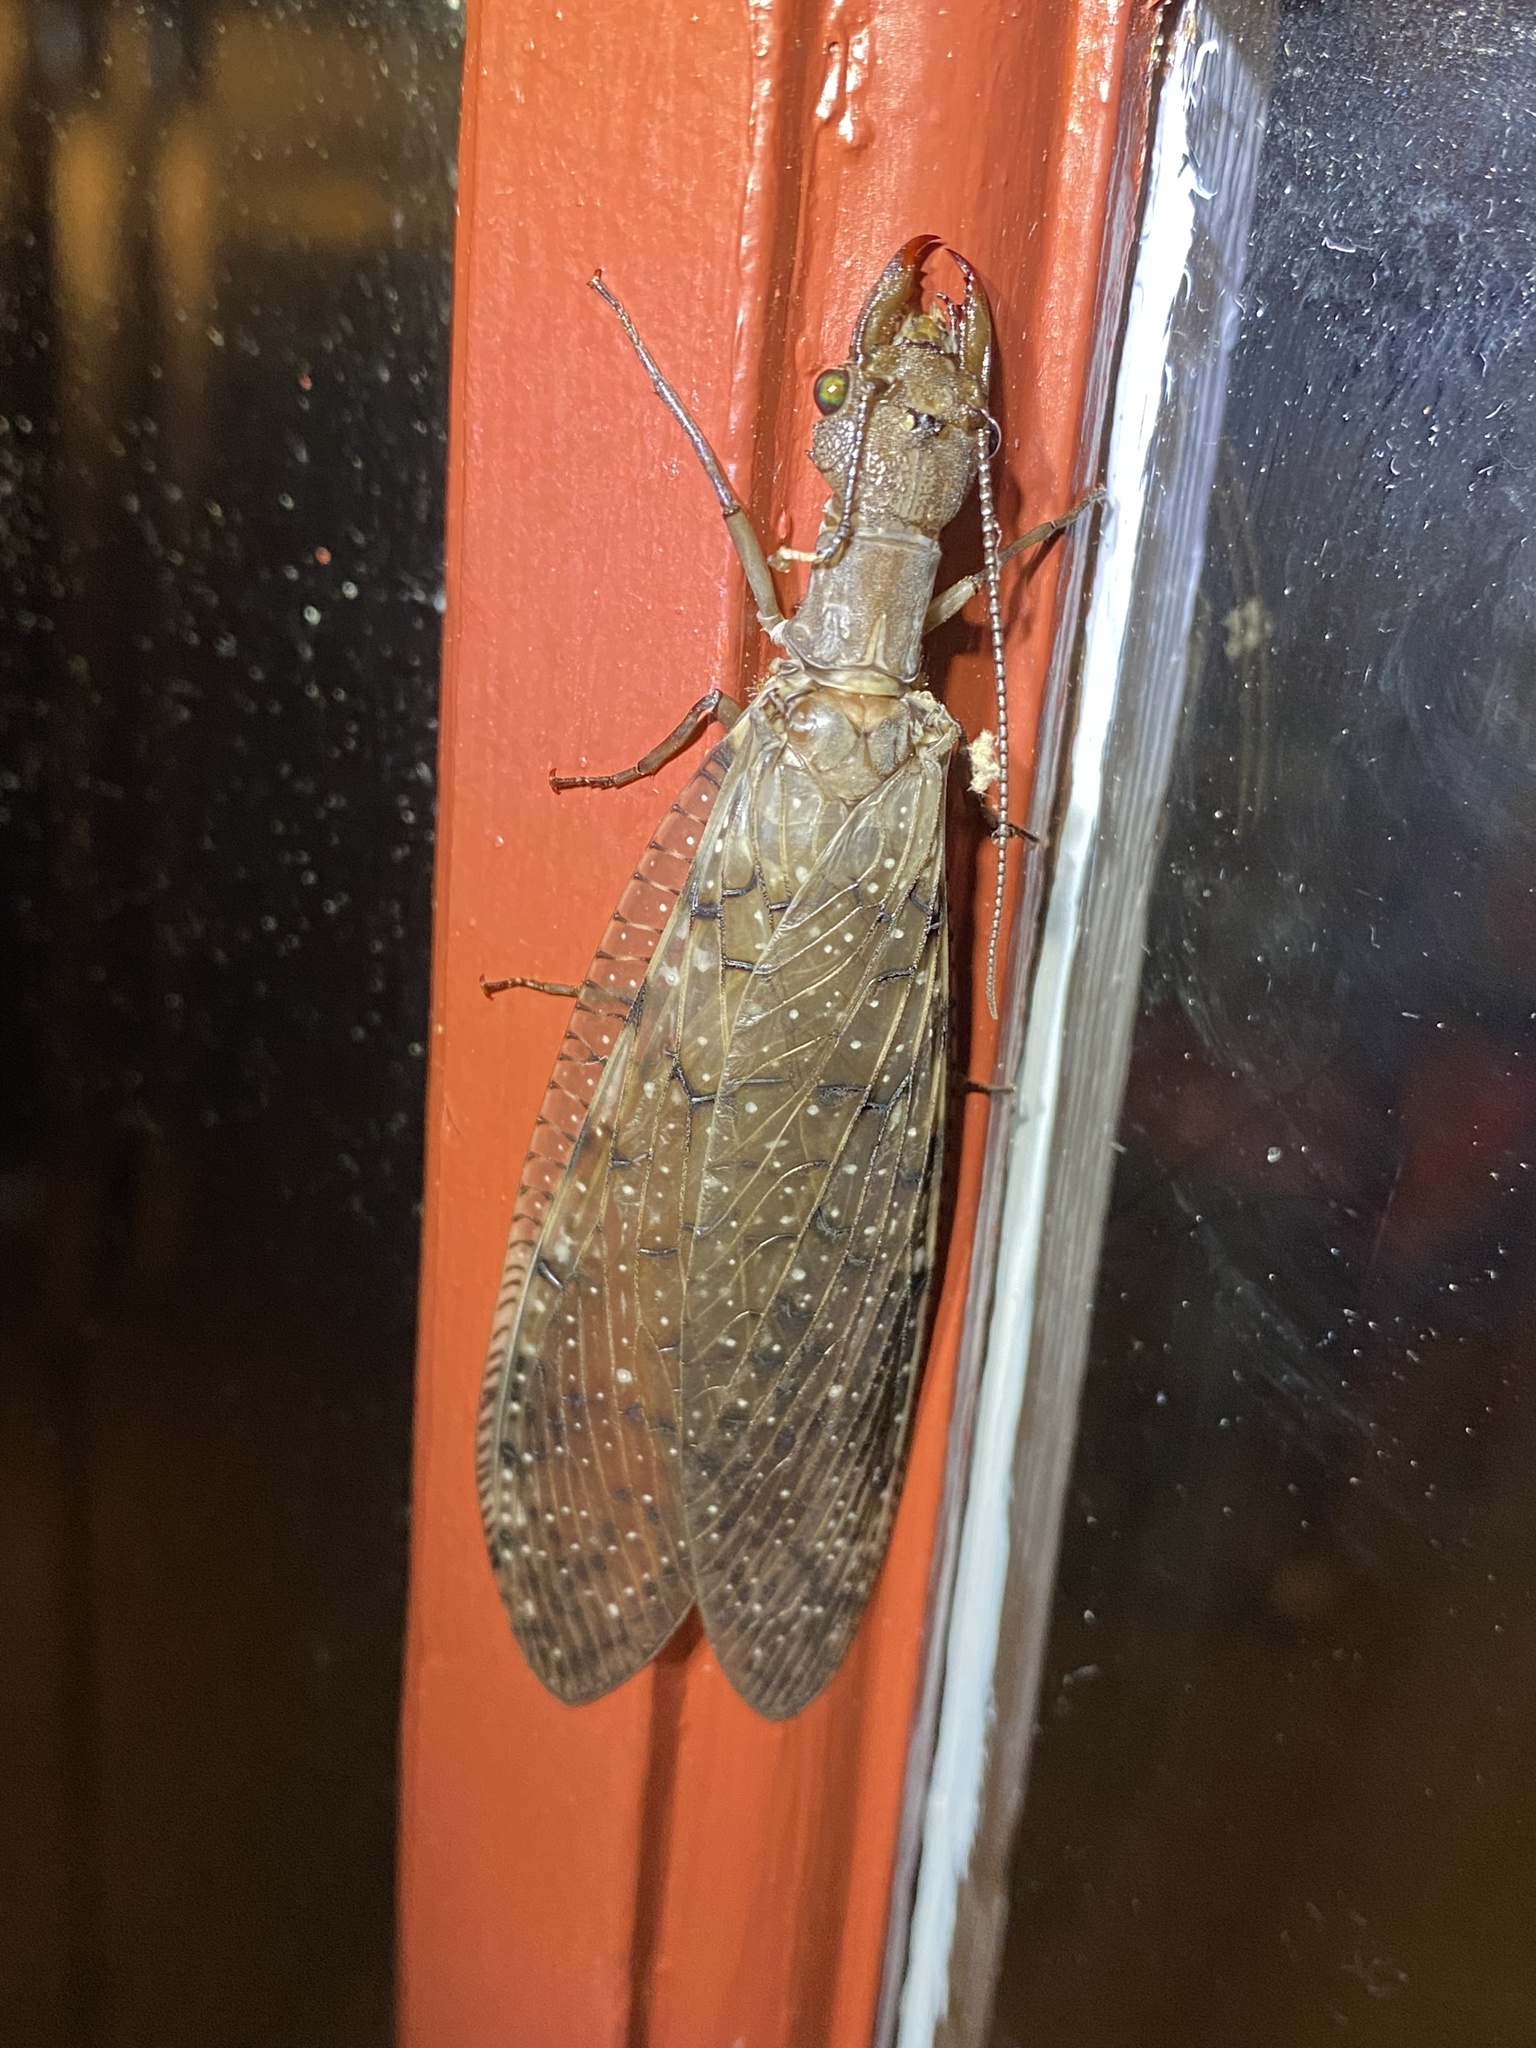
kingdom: Animalia
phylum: Arthropoda
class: Insecta
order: Megaloptera
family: Corydalidae
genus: Corydalus
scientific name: Corydalus cornutus
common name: Dobsonfly
